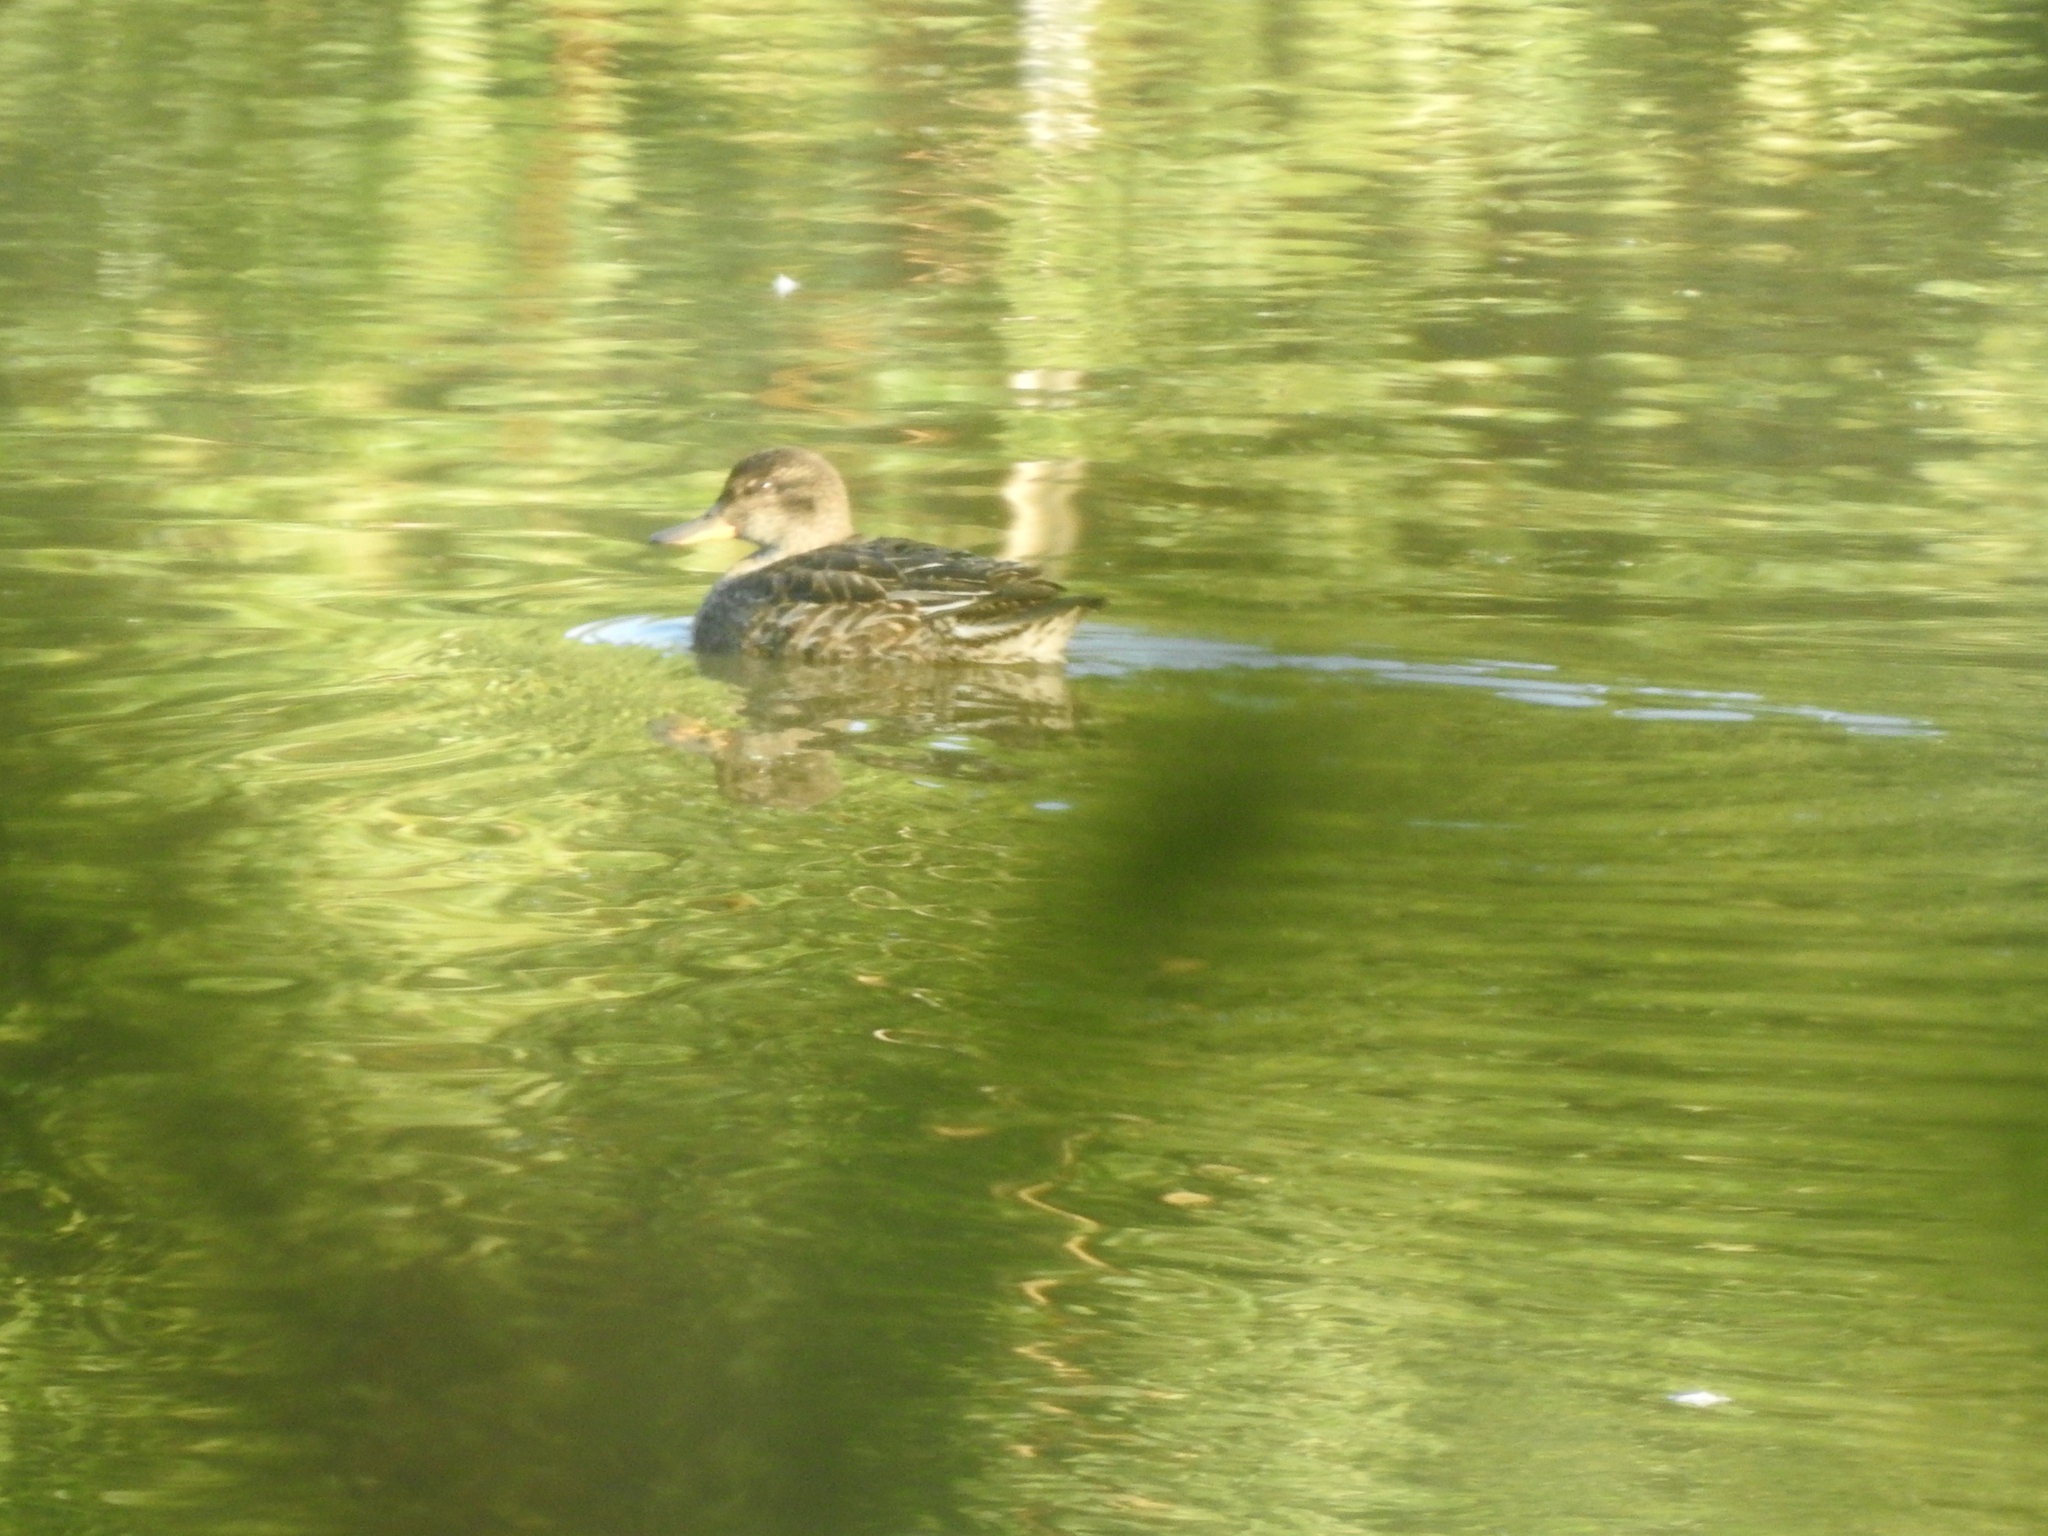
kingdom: Animalia
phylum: Chordata
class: Aves
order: Anseriformes
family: Anatidae
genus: Anas
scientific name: Anas crecca
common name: Eurasian teal
